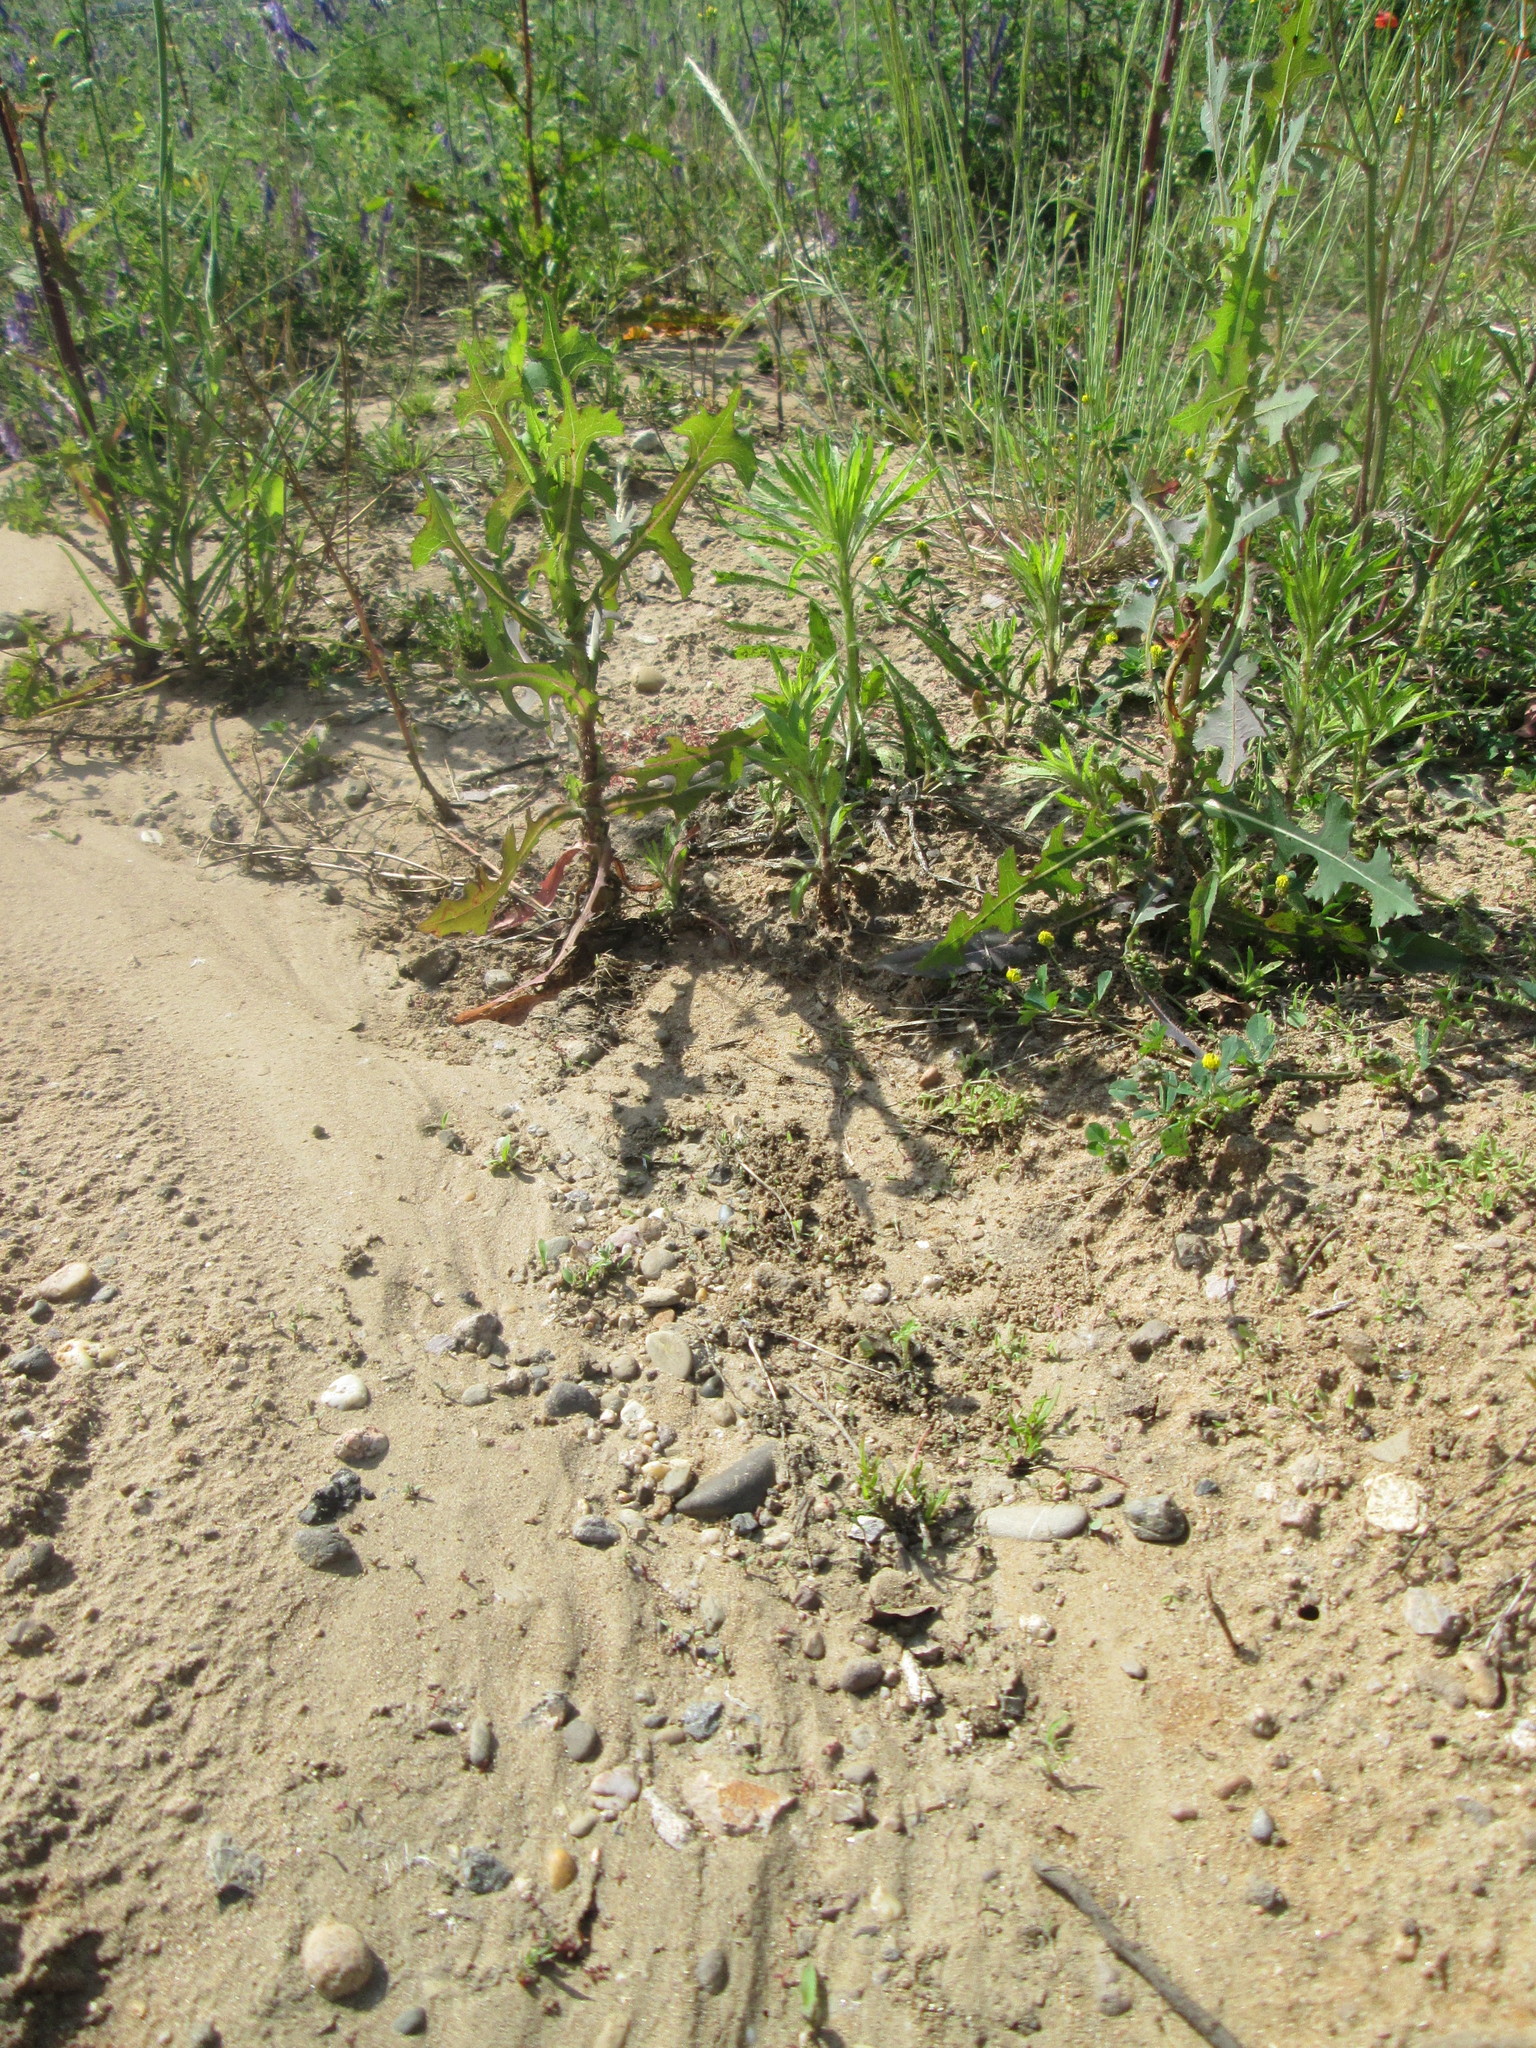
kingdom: Plantae
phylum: Tracheophyta
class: Magnoliopsida
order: Asterales
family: Asteraceae
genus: Lactuca
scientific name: Lactuca serriola
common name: Prickly lettuce
